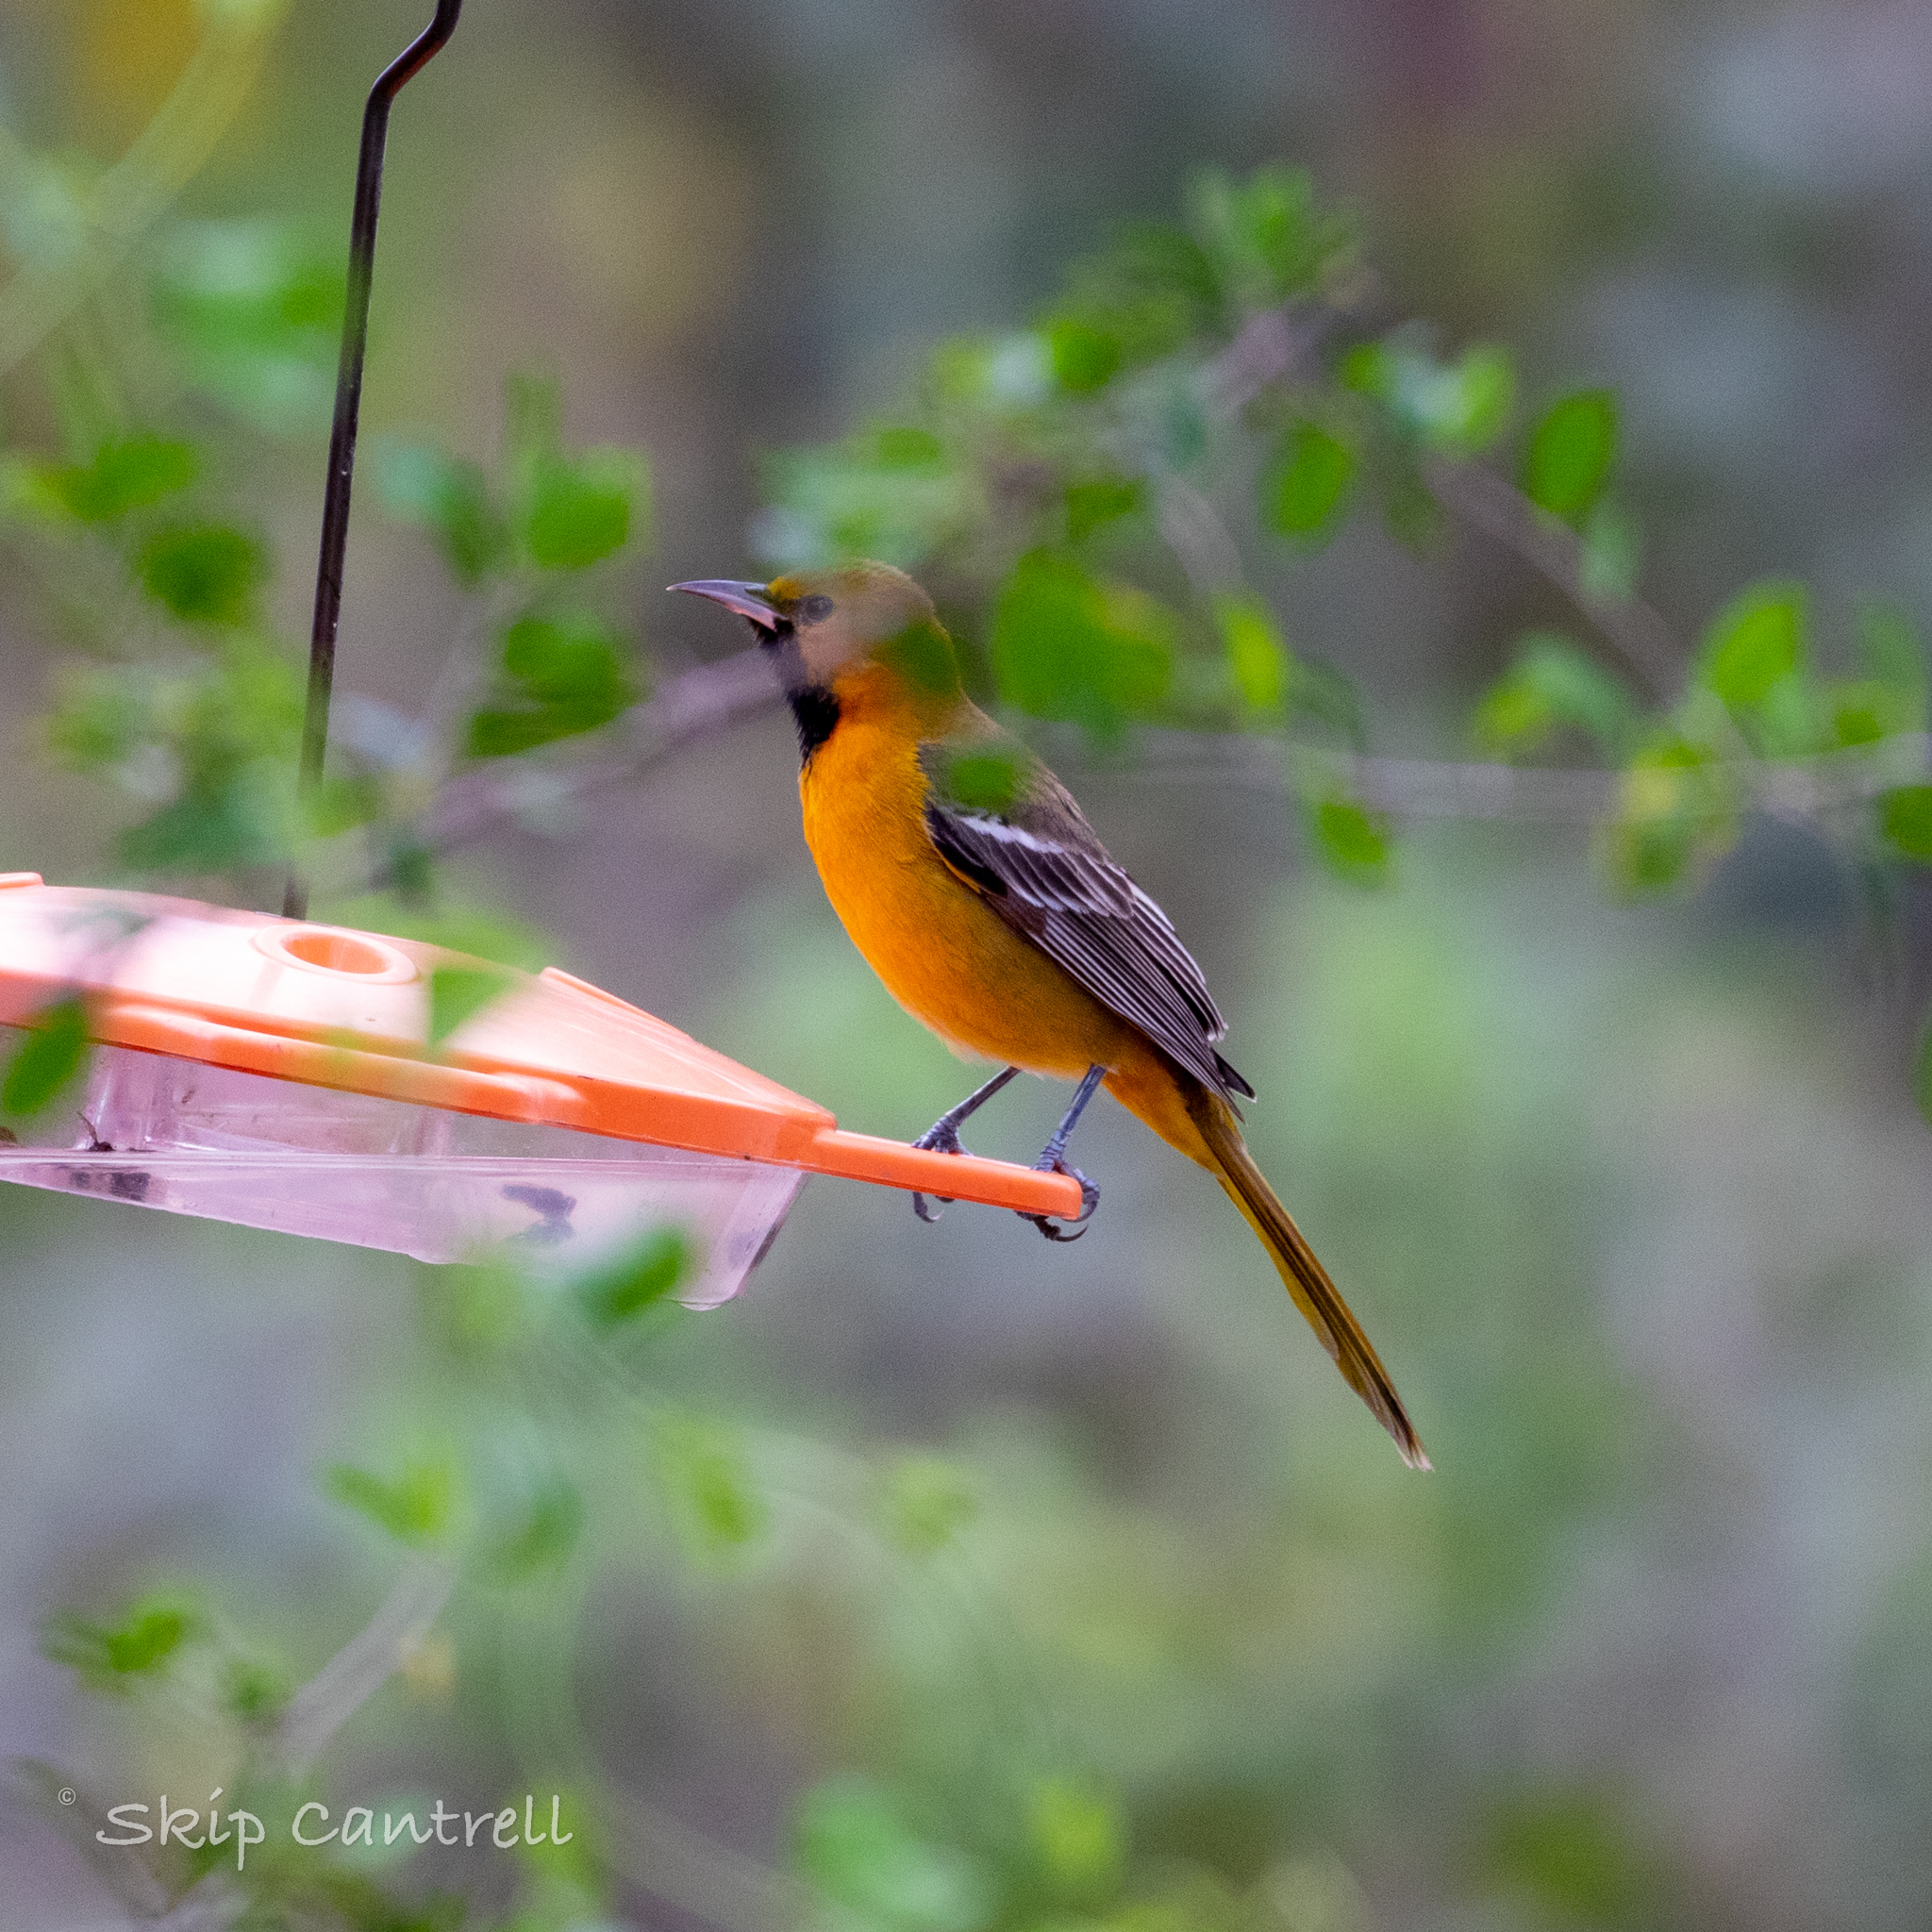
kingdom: Animalia
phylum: Chordata
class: Aves
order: Passeriformes
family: Icteridae
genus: Icterus
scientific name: Icterus cucullatus
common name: Hooded oriole
